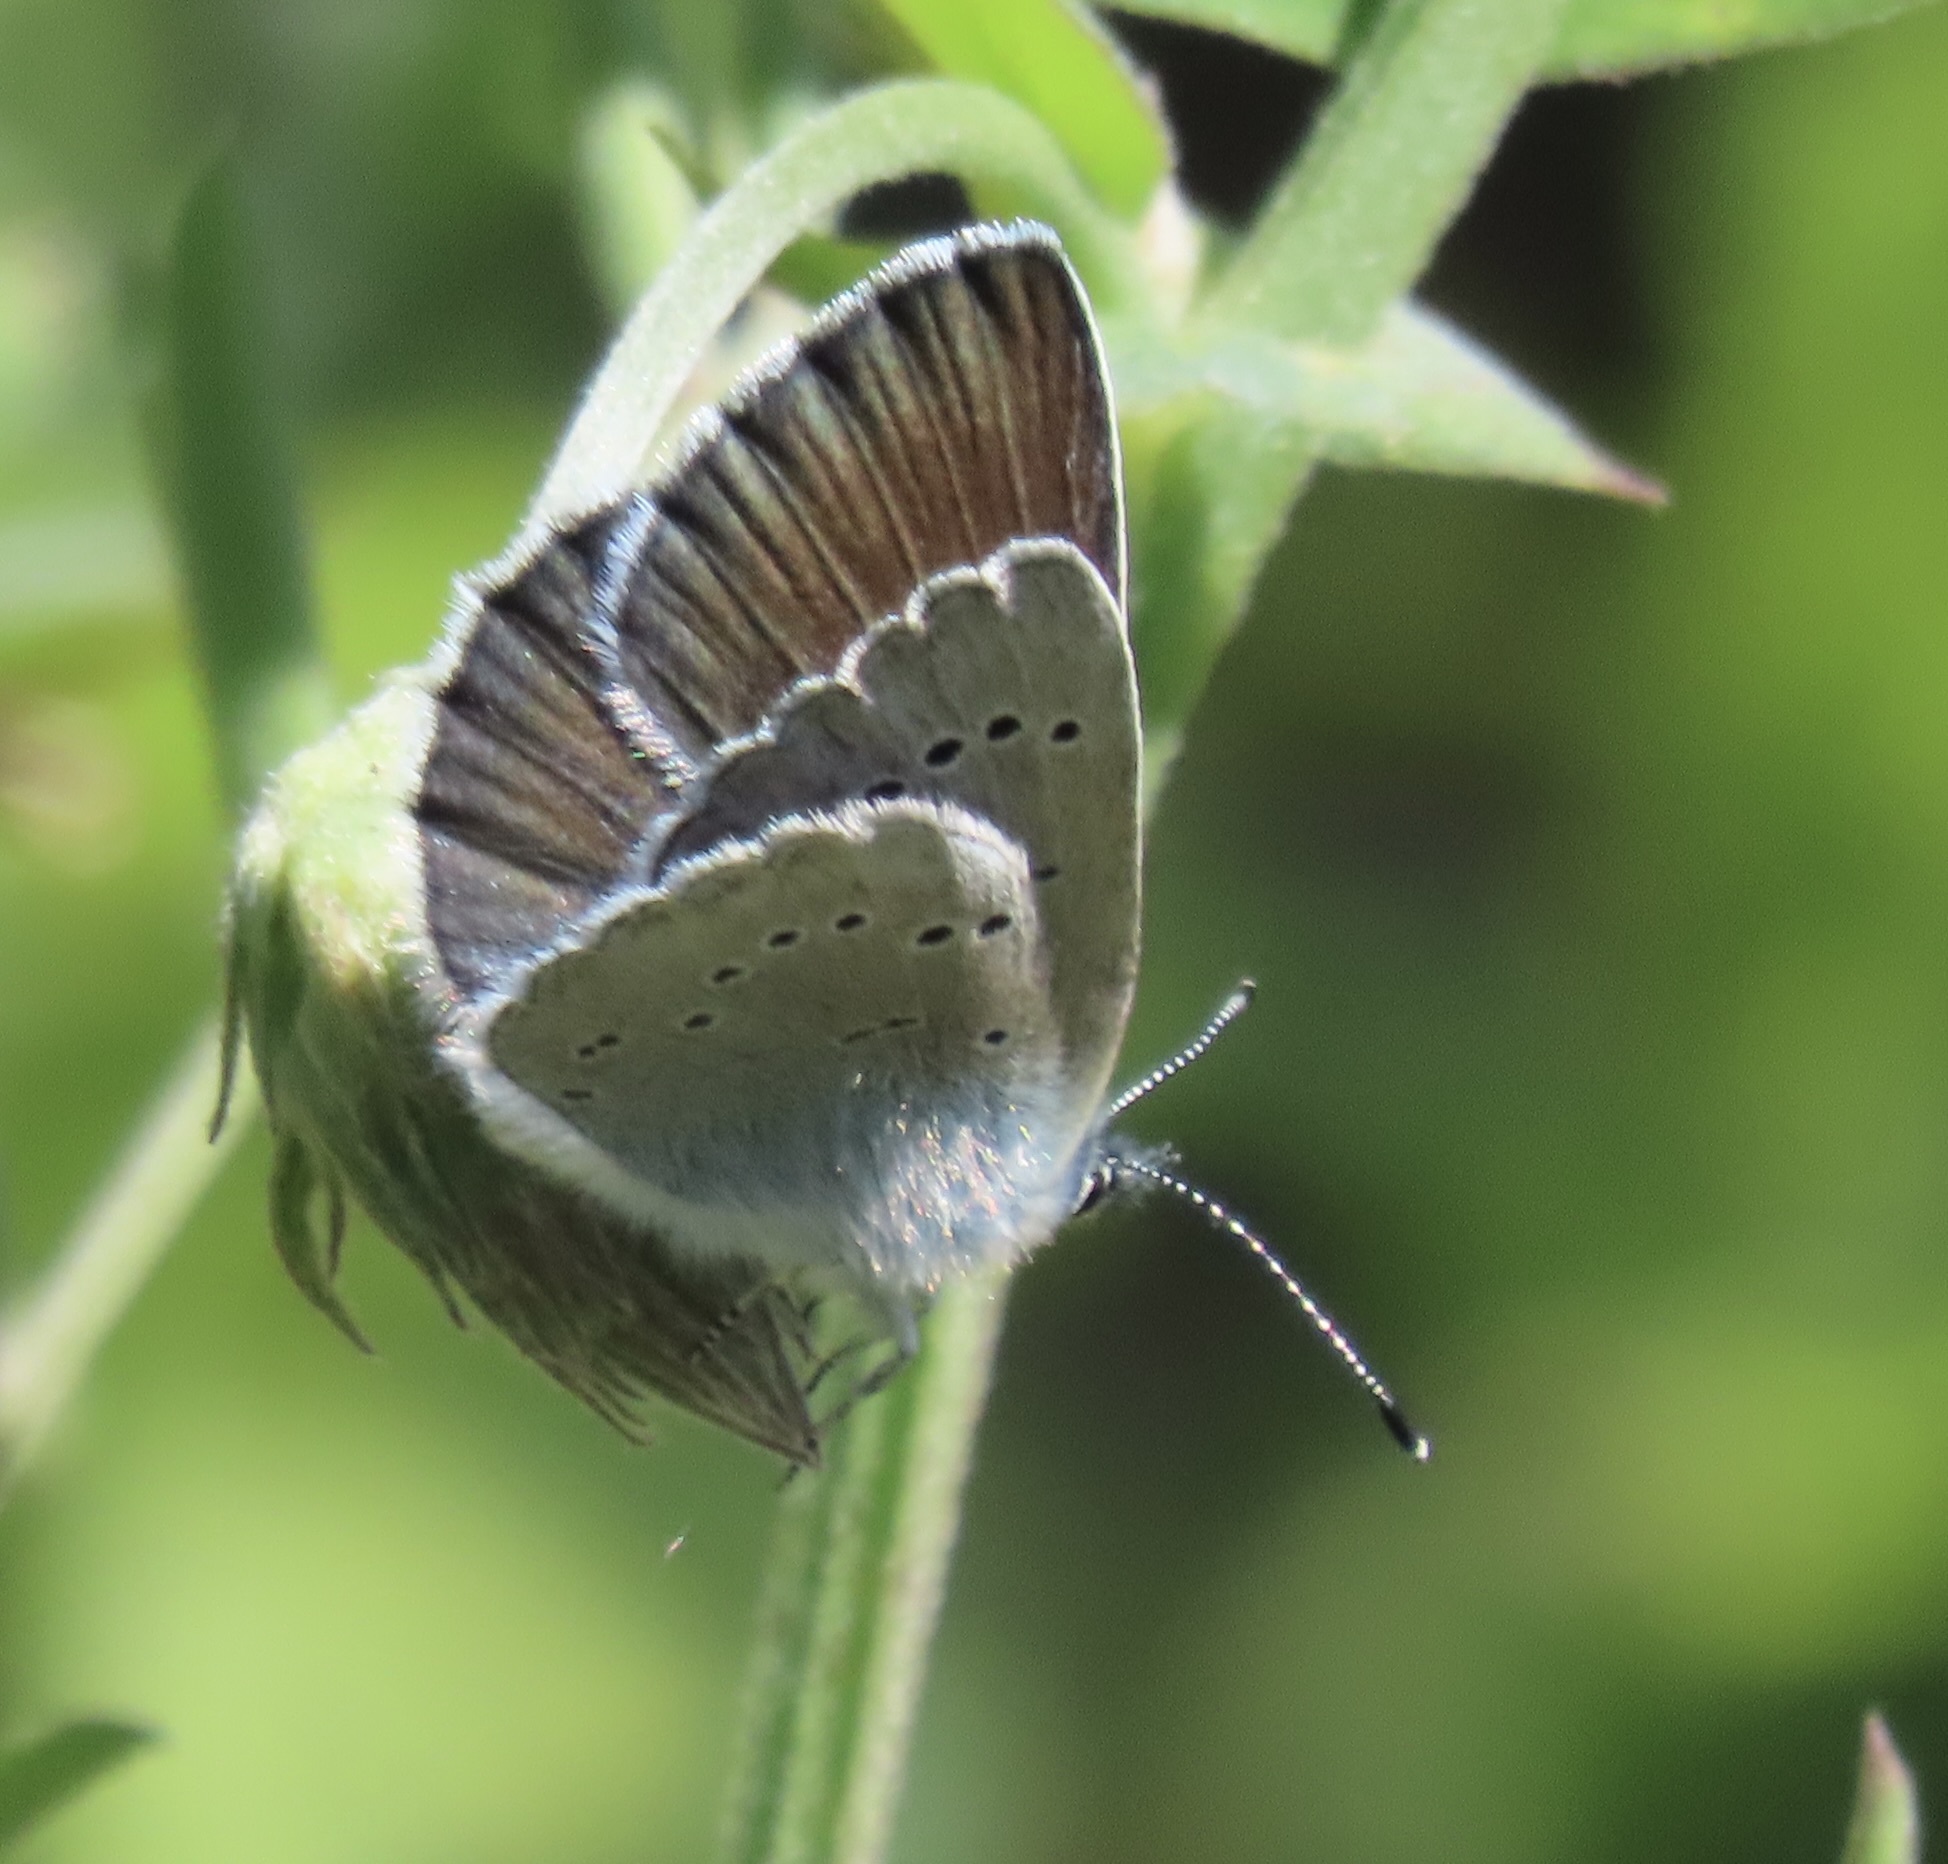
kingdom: Animalia
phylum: Arthropoda
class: Insecta
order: Lepidoptera
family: Lycaenidae
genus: Glaucopsyche
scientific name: Glaucopsyche lygdamus
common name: Silvery blue
